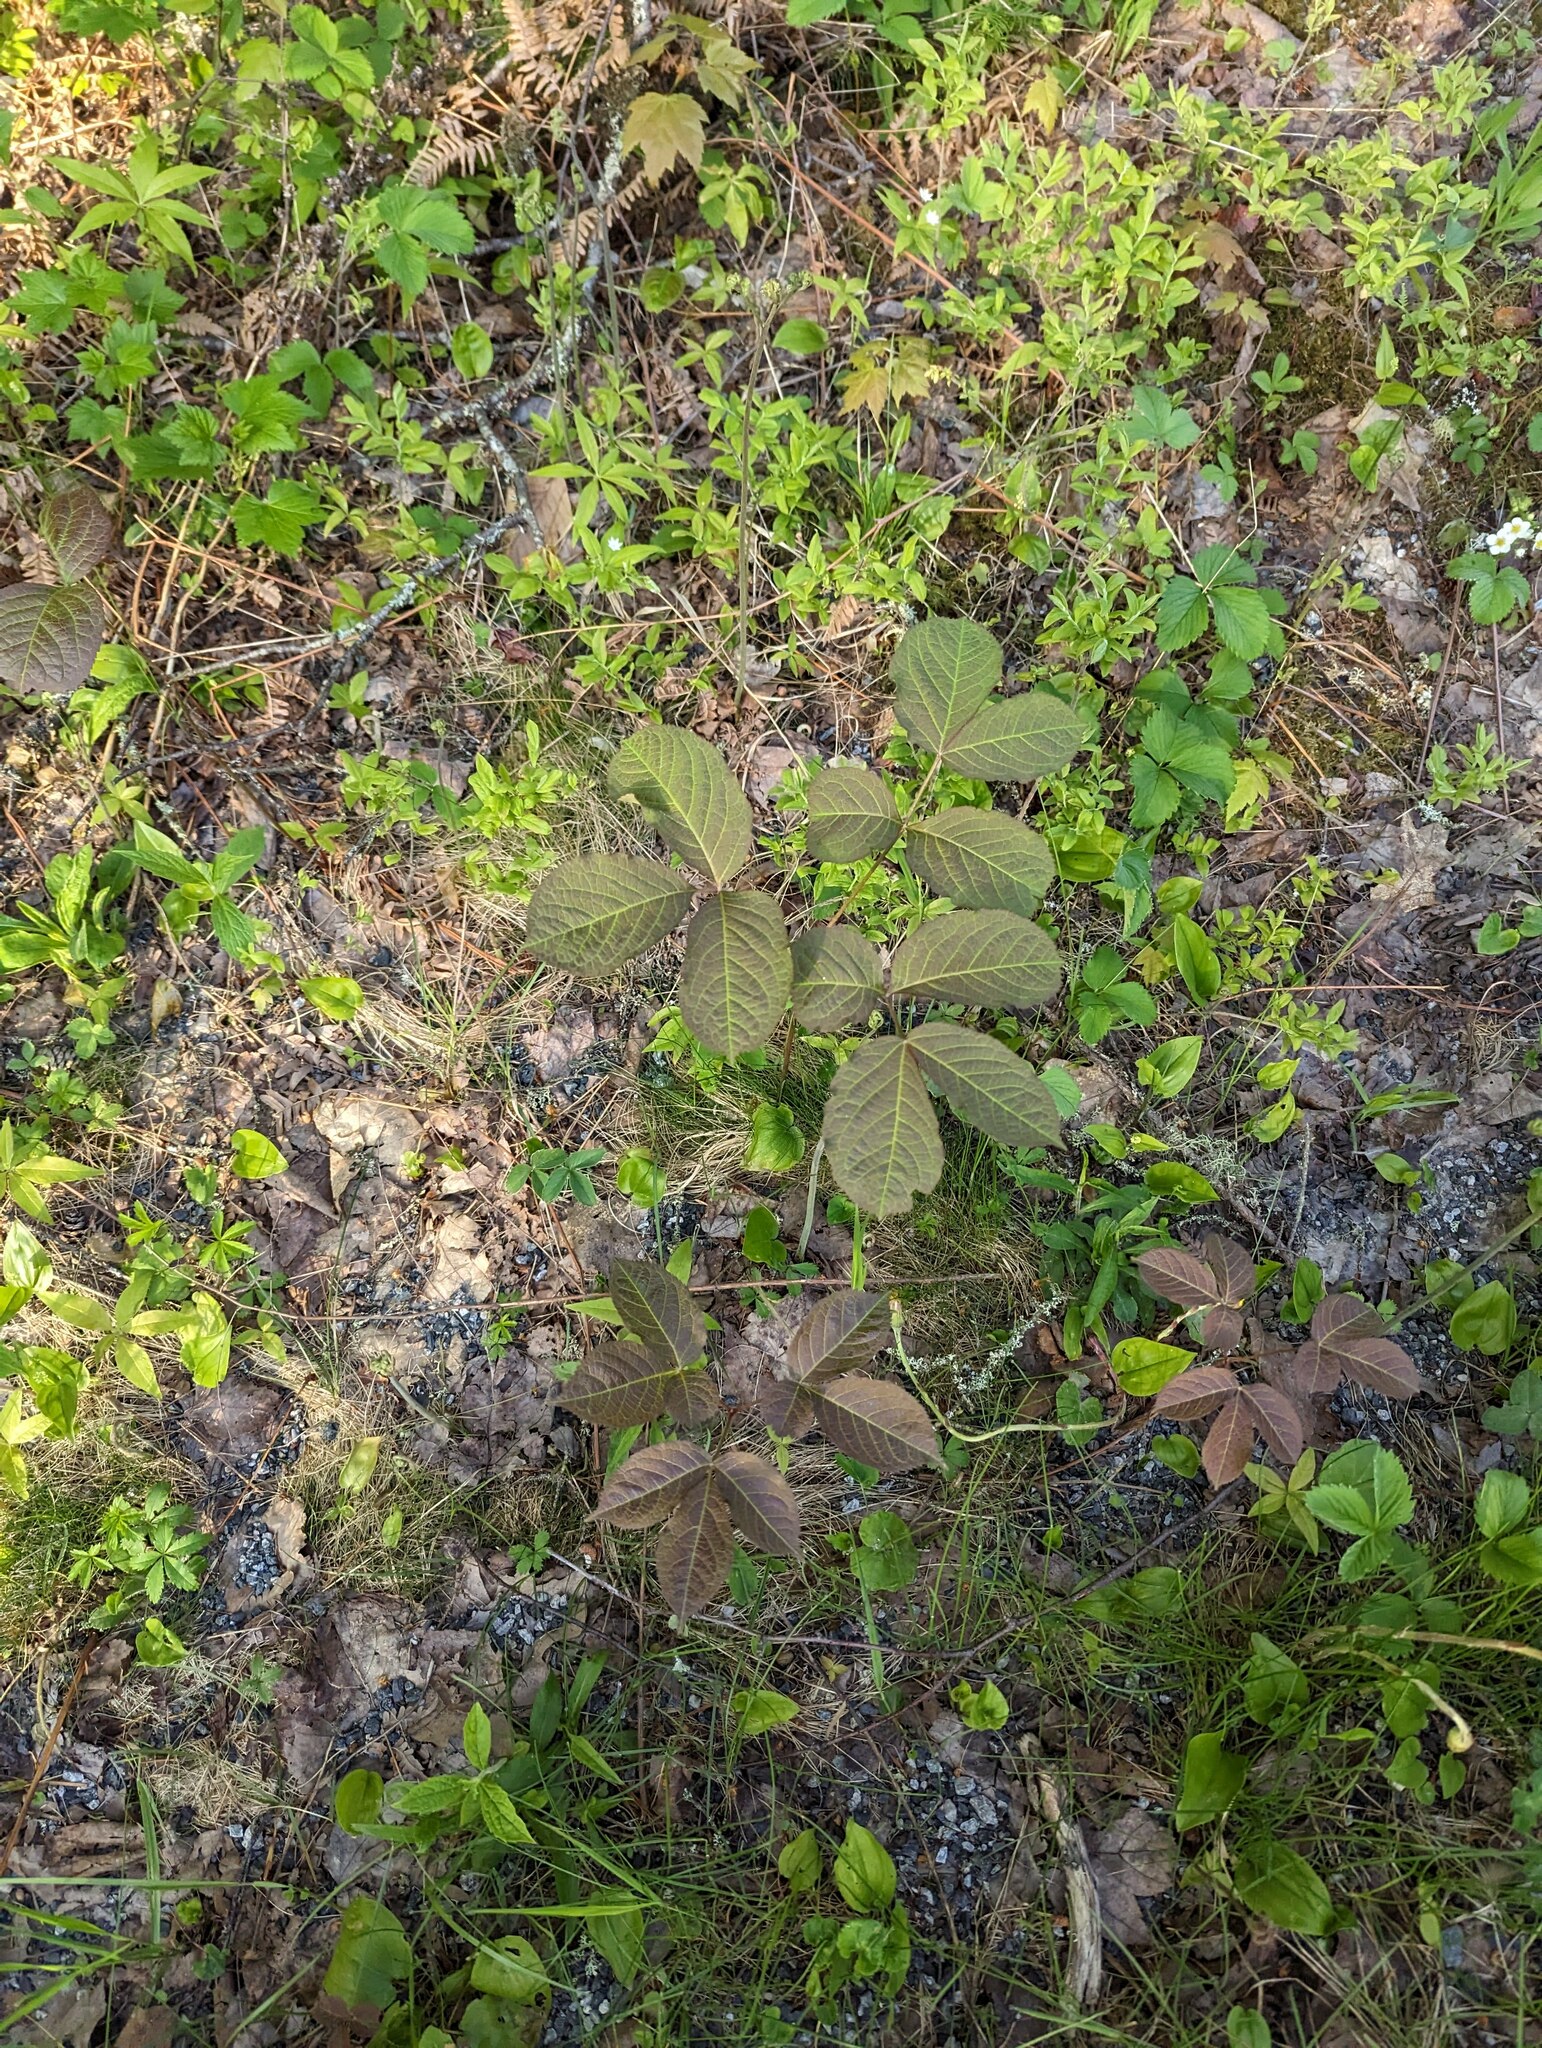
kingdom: Plantae
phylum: Tracheophyta
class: Magnoliopsida
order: Apiales
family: Araliaceae
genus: Aralia
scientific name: Aralia nudicaulis
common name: Wild sarsaparilla
